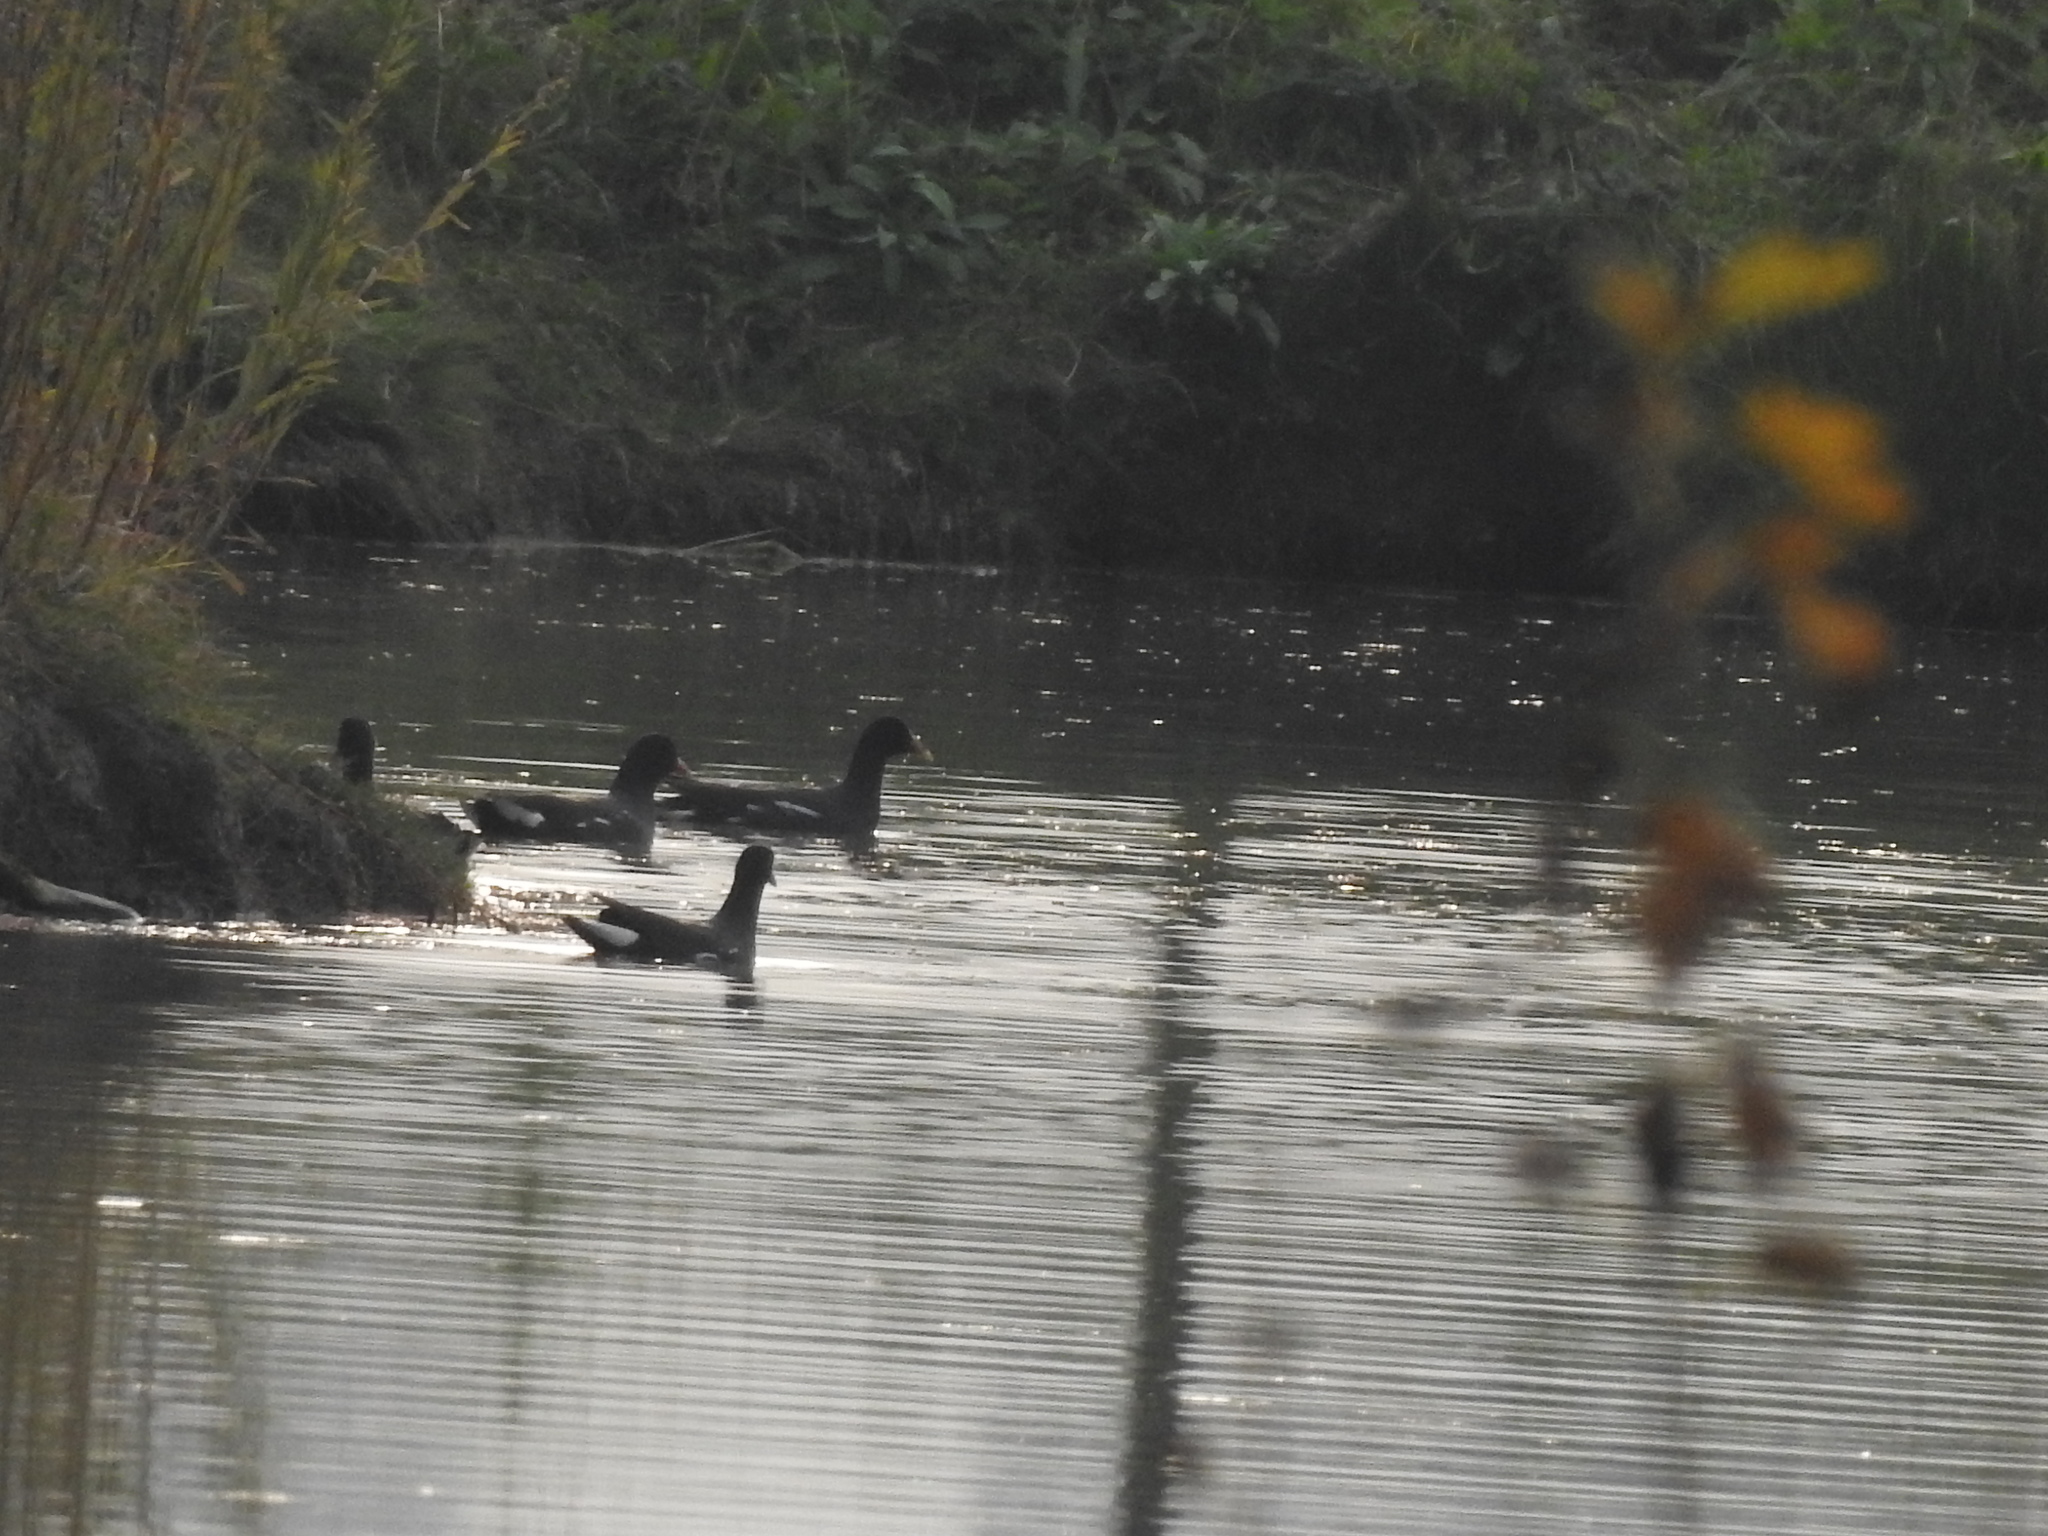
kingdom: Animalia
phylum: Chordata
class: Aves
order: Gruiformes
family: Rallidae
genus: Gallinula
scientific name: Gallinula chloropus
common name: Common moorhen
